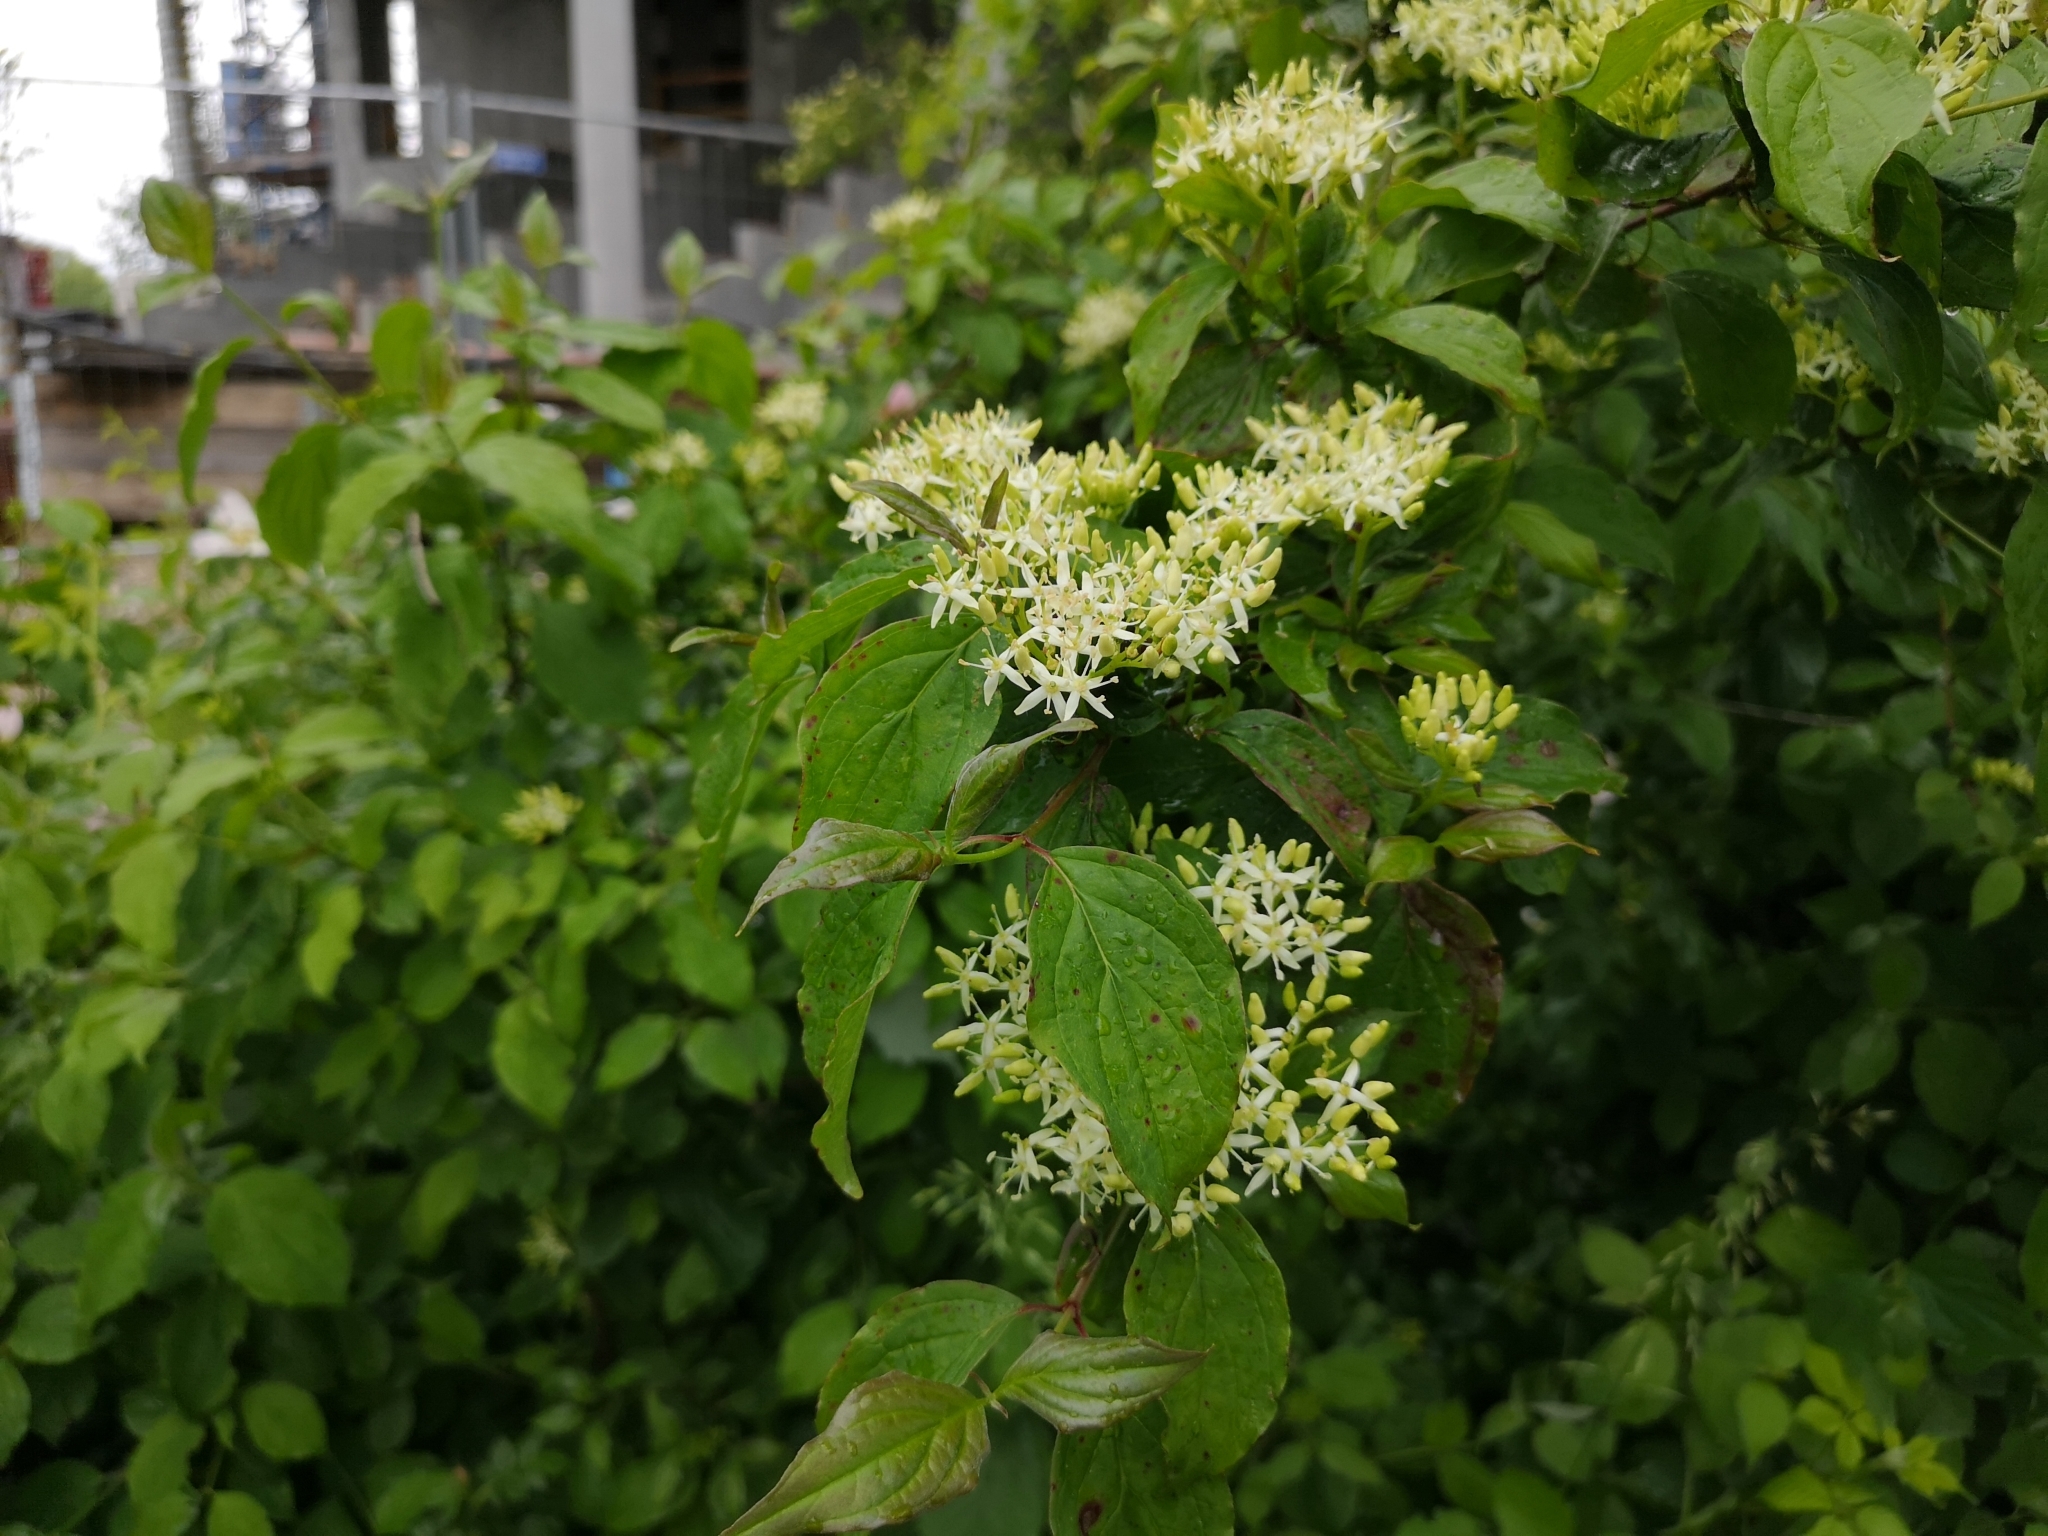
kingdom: Plantae
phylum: Tracheophyta
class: Magnoliopsida
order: Cornales
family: Cornaceae
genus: Cornus
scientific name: Cornus sanguinea
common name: Dogwood
